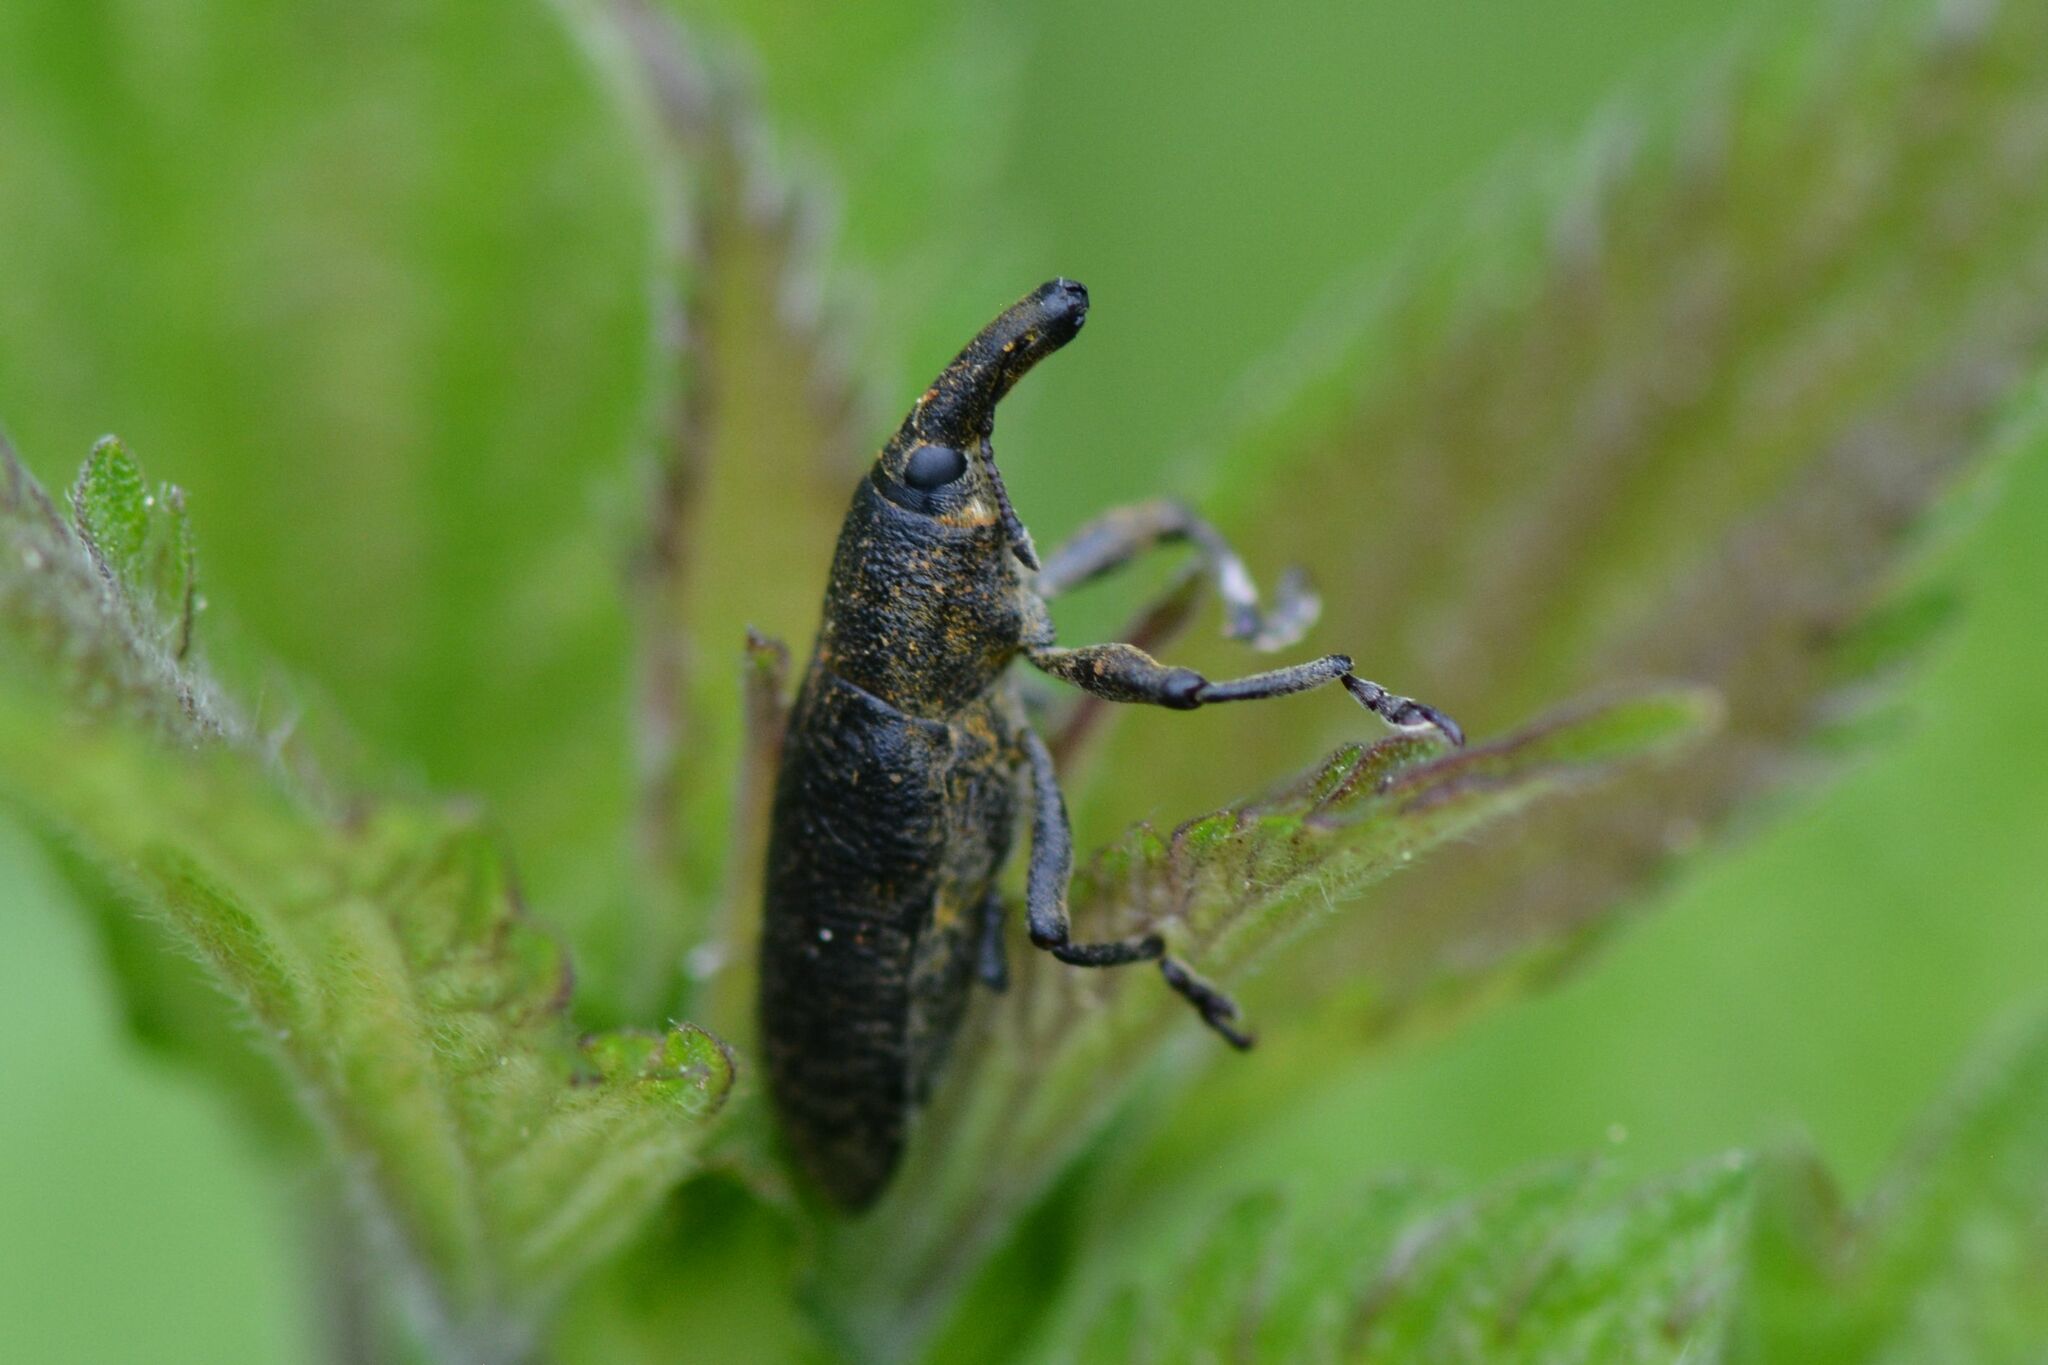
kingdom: Animalia
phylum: Arthropoda
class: Insecta
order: Coleoptera
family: Curculionidae
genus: Lixus
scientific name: Lixus pulverulentus
